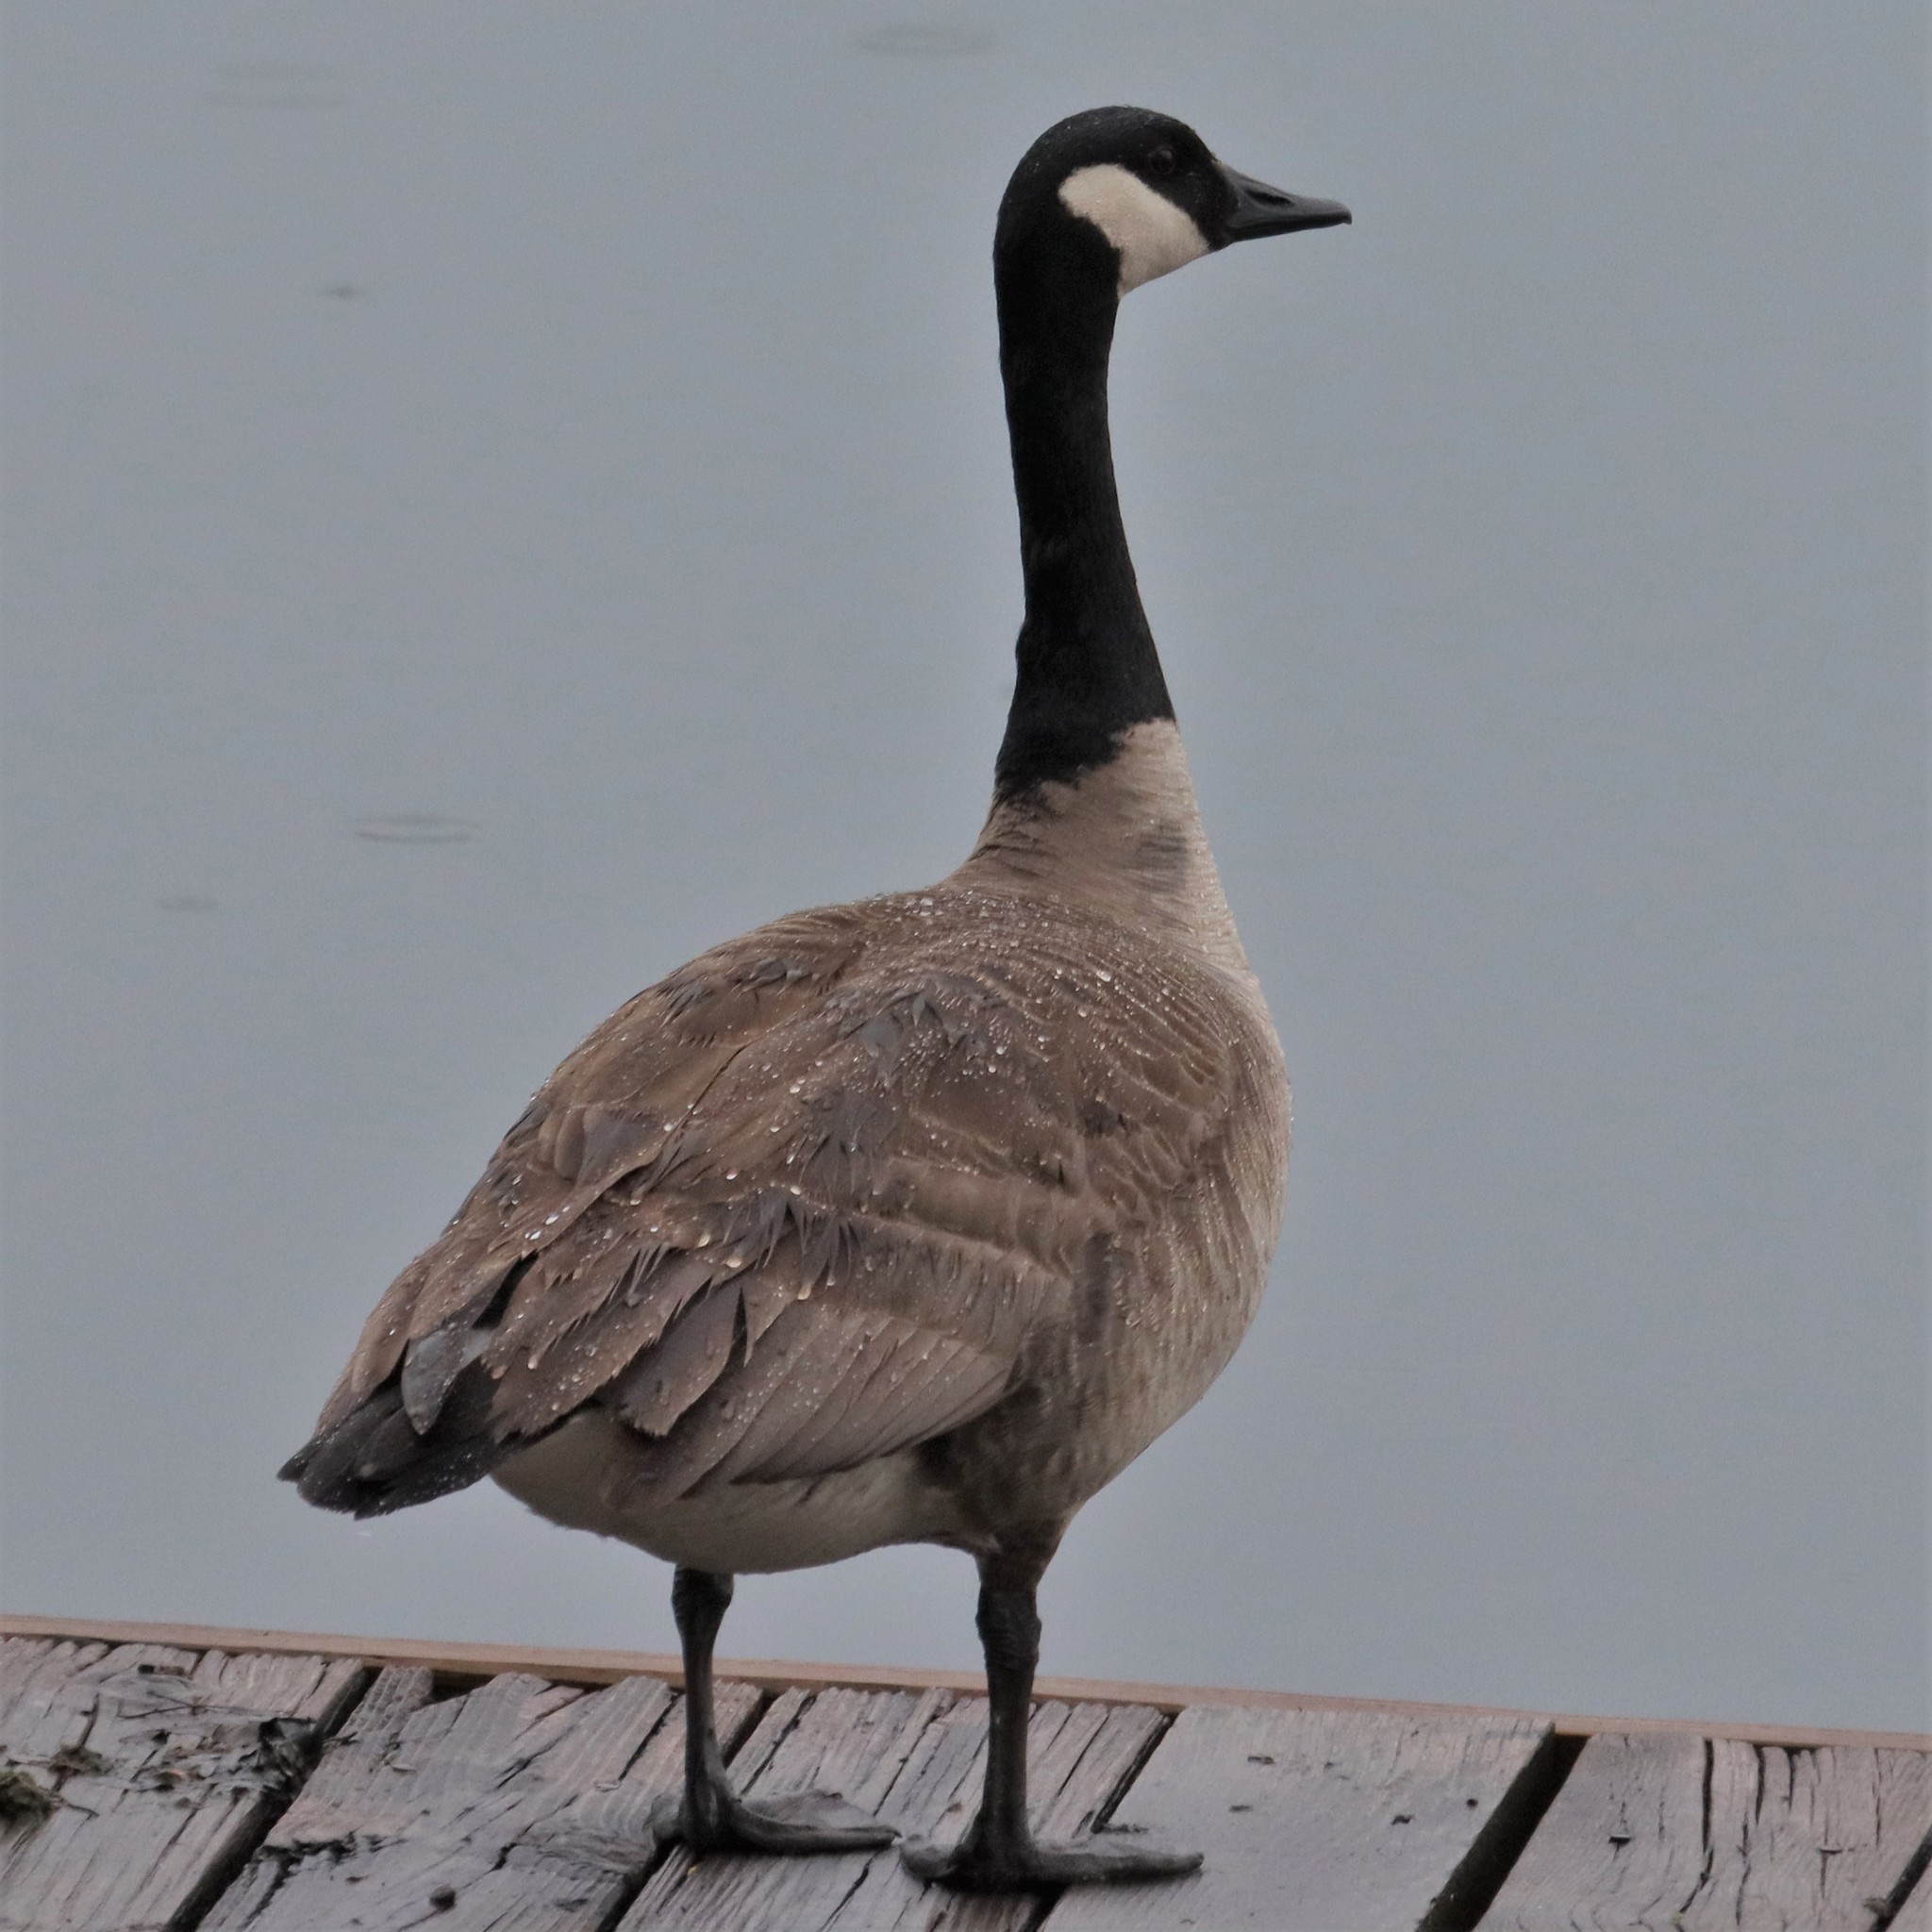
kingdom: Animalia
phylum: Chordata
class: Aves
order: Anseriformes
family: Anatidae
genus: Branta
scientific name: Branta canadensis
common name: Canada goose
